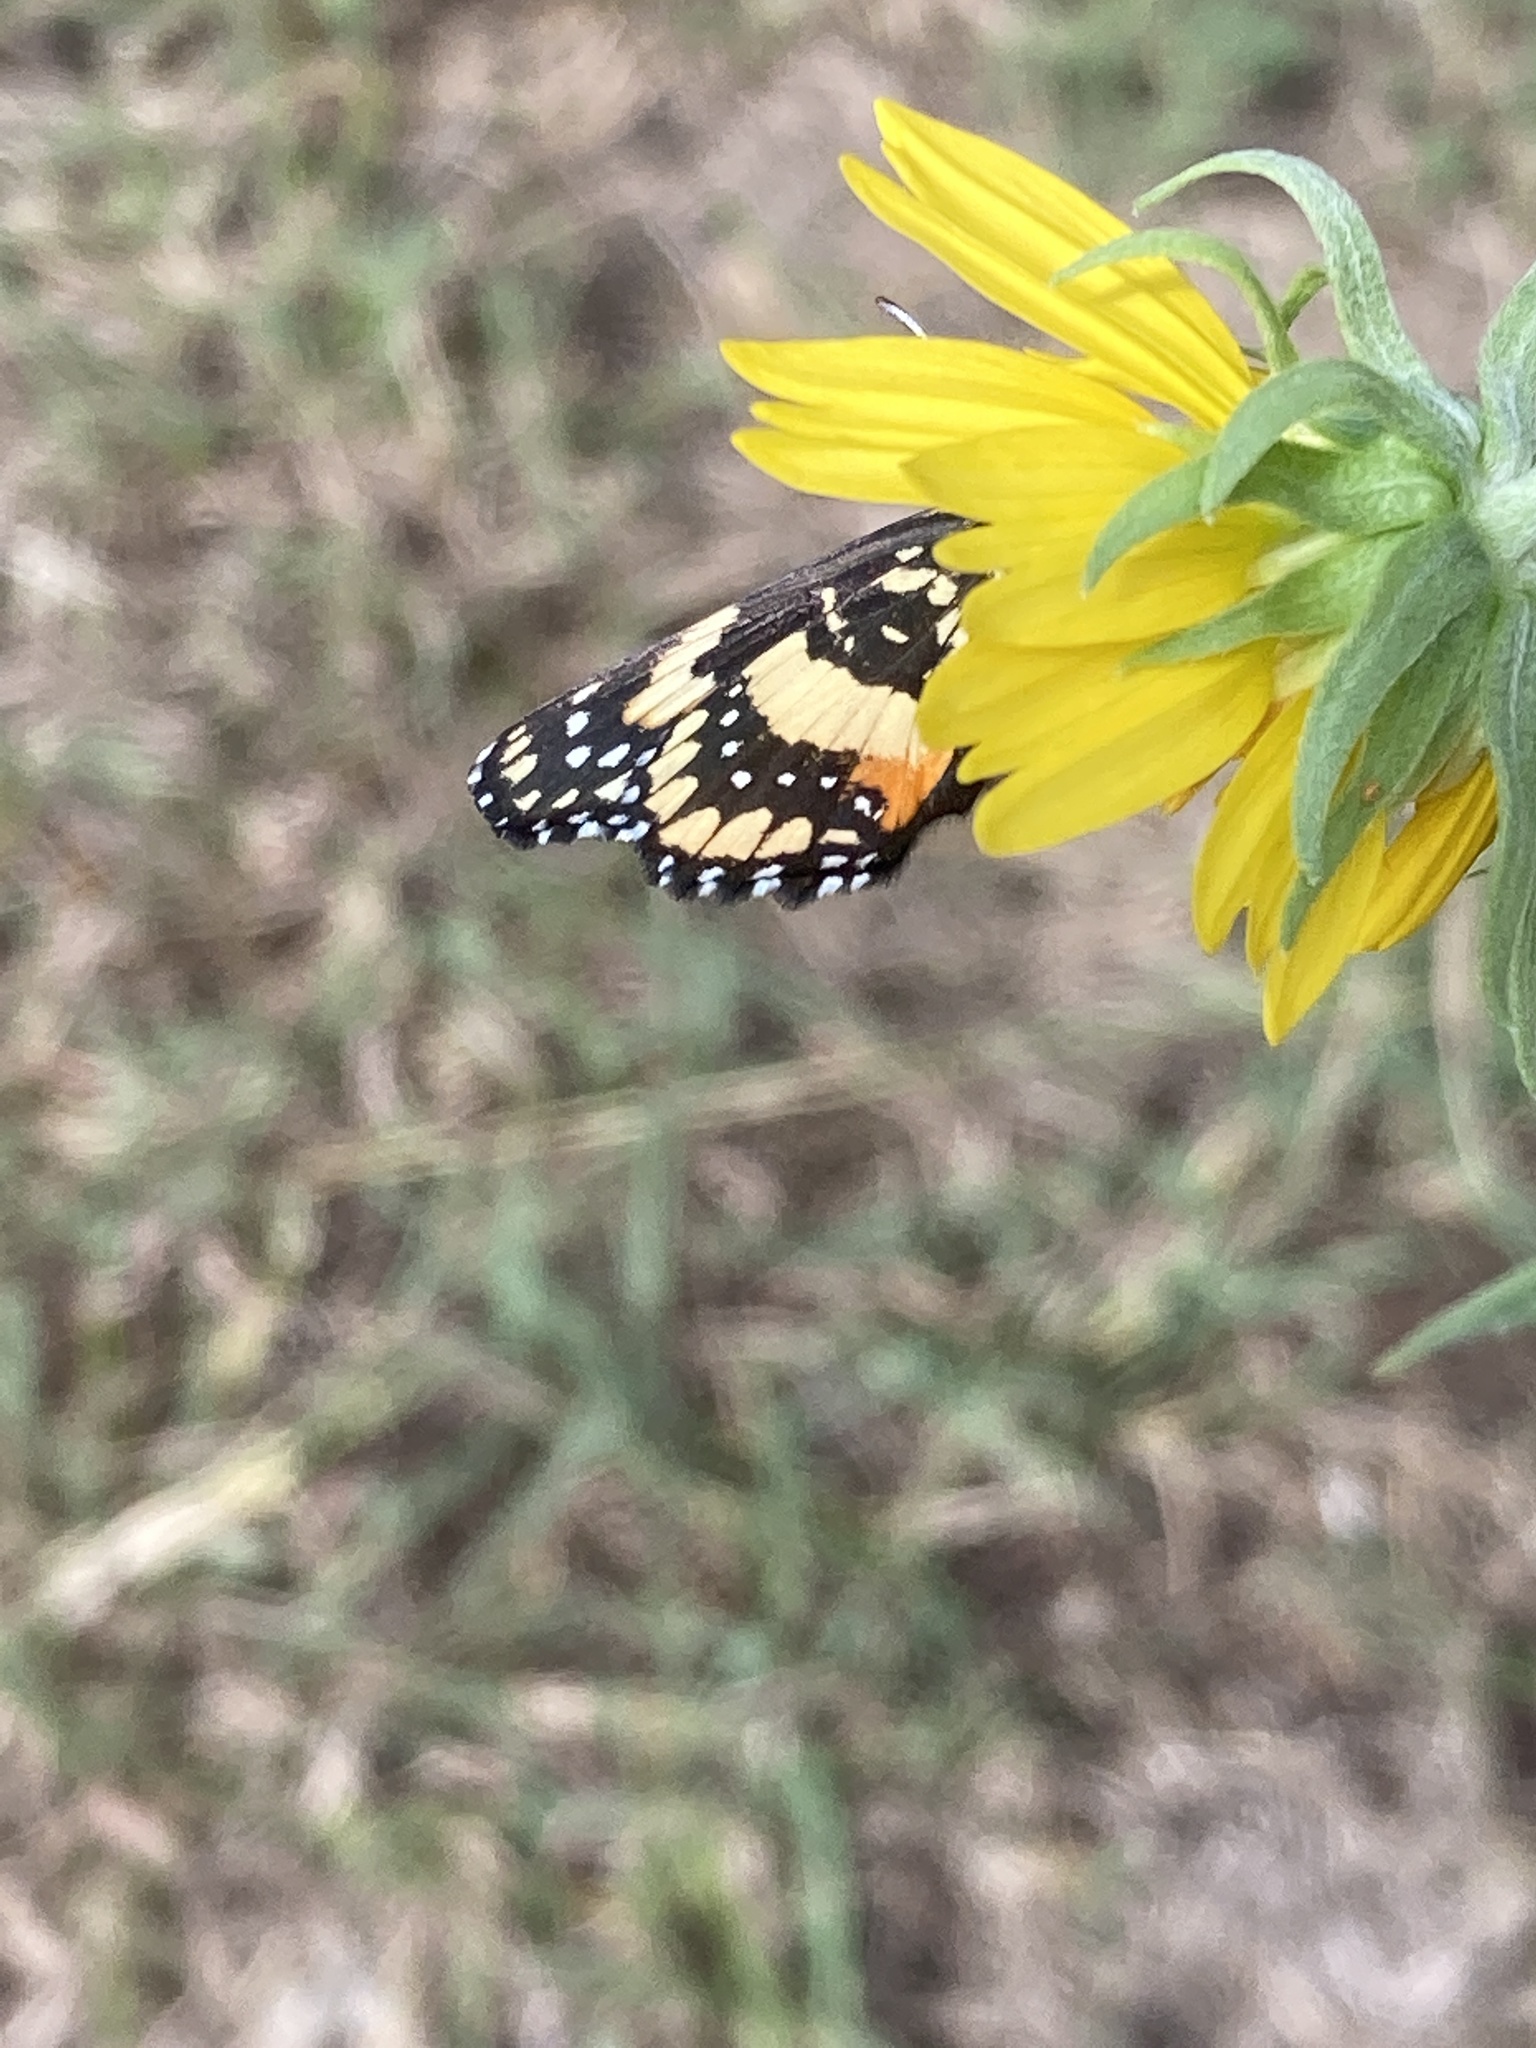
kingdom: Animalia
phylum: Arthropoda
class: Insecta
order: Lepidoptera
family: Nymphalidae
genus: Chlosyne
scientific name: Chlosyne lacinia
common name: Bordered patch
